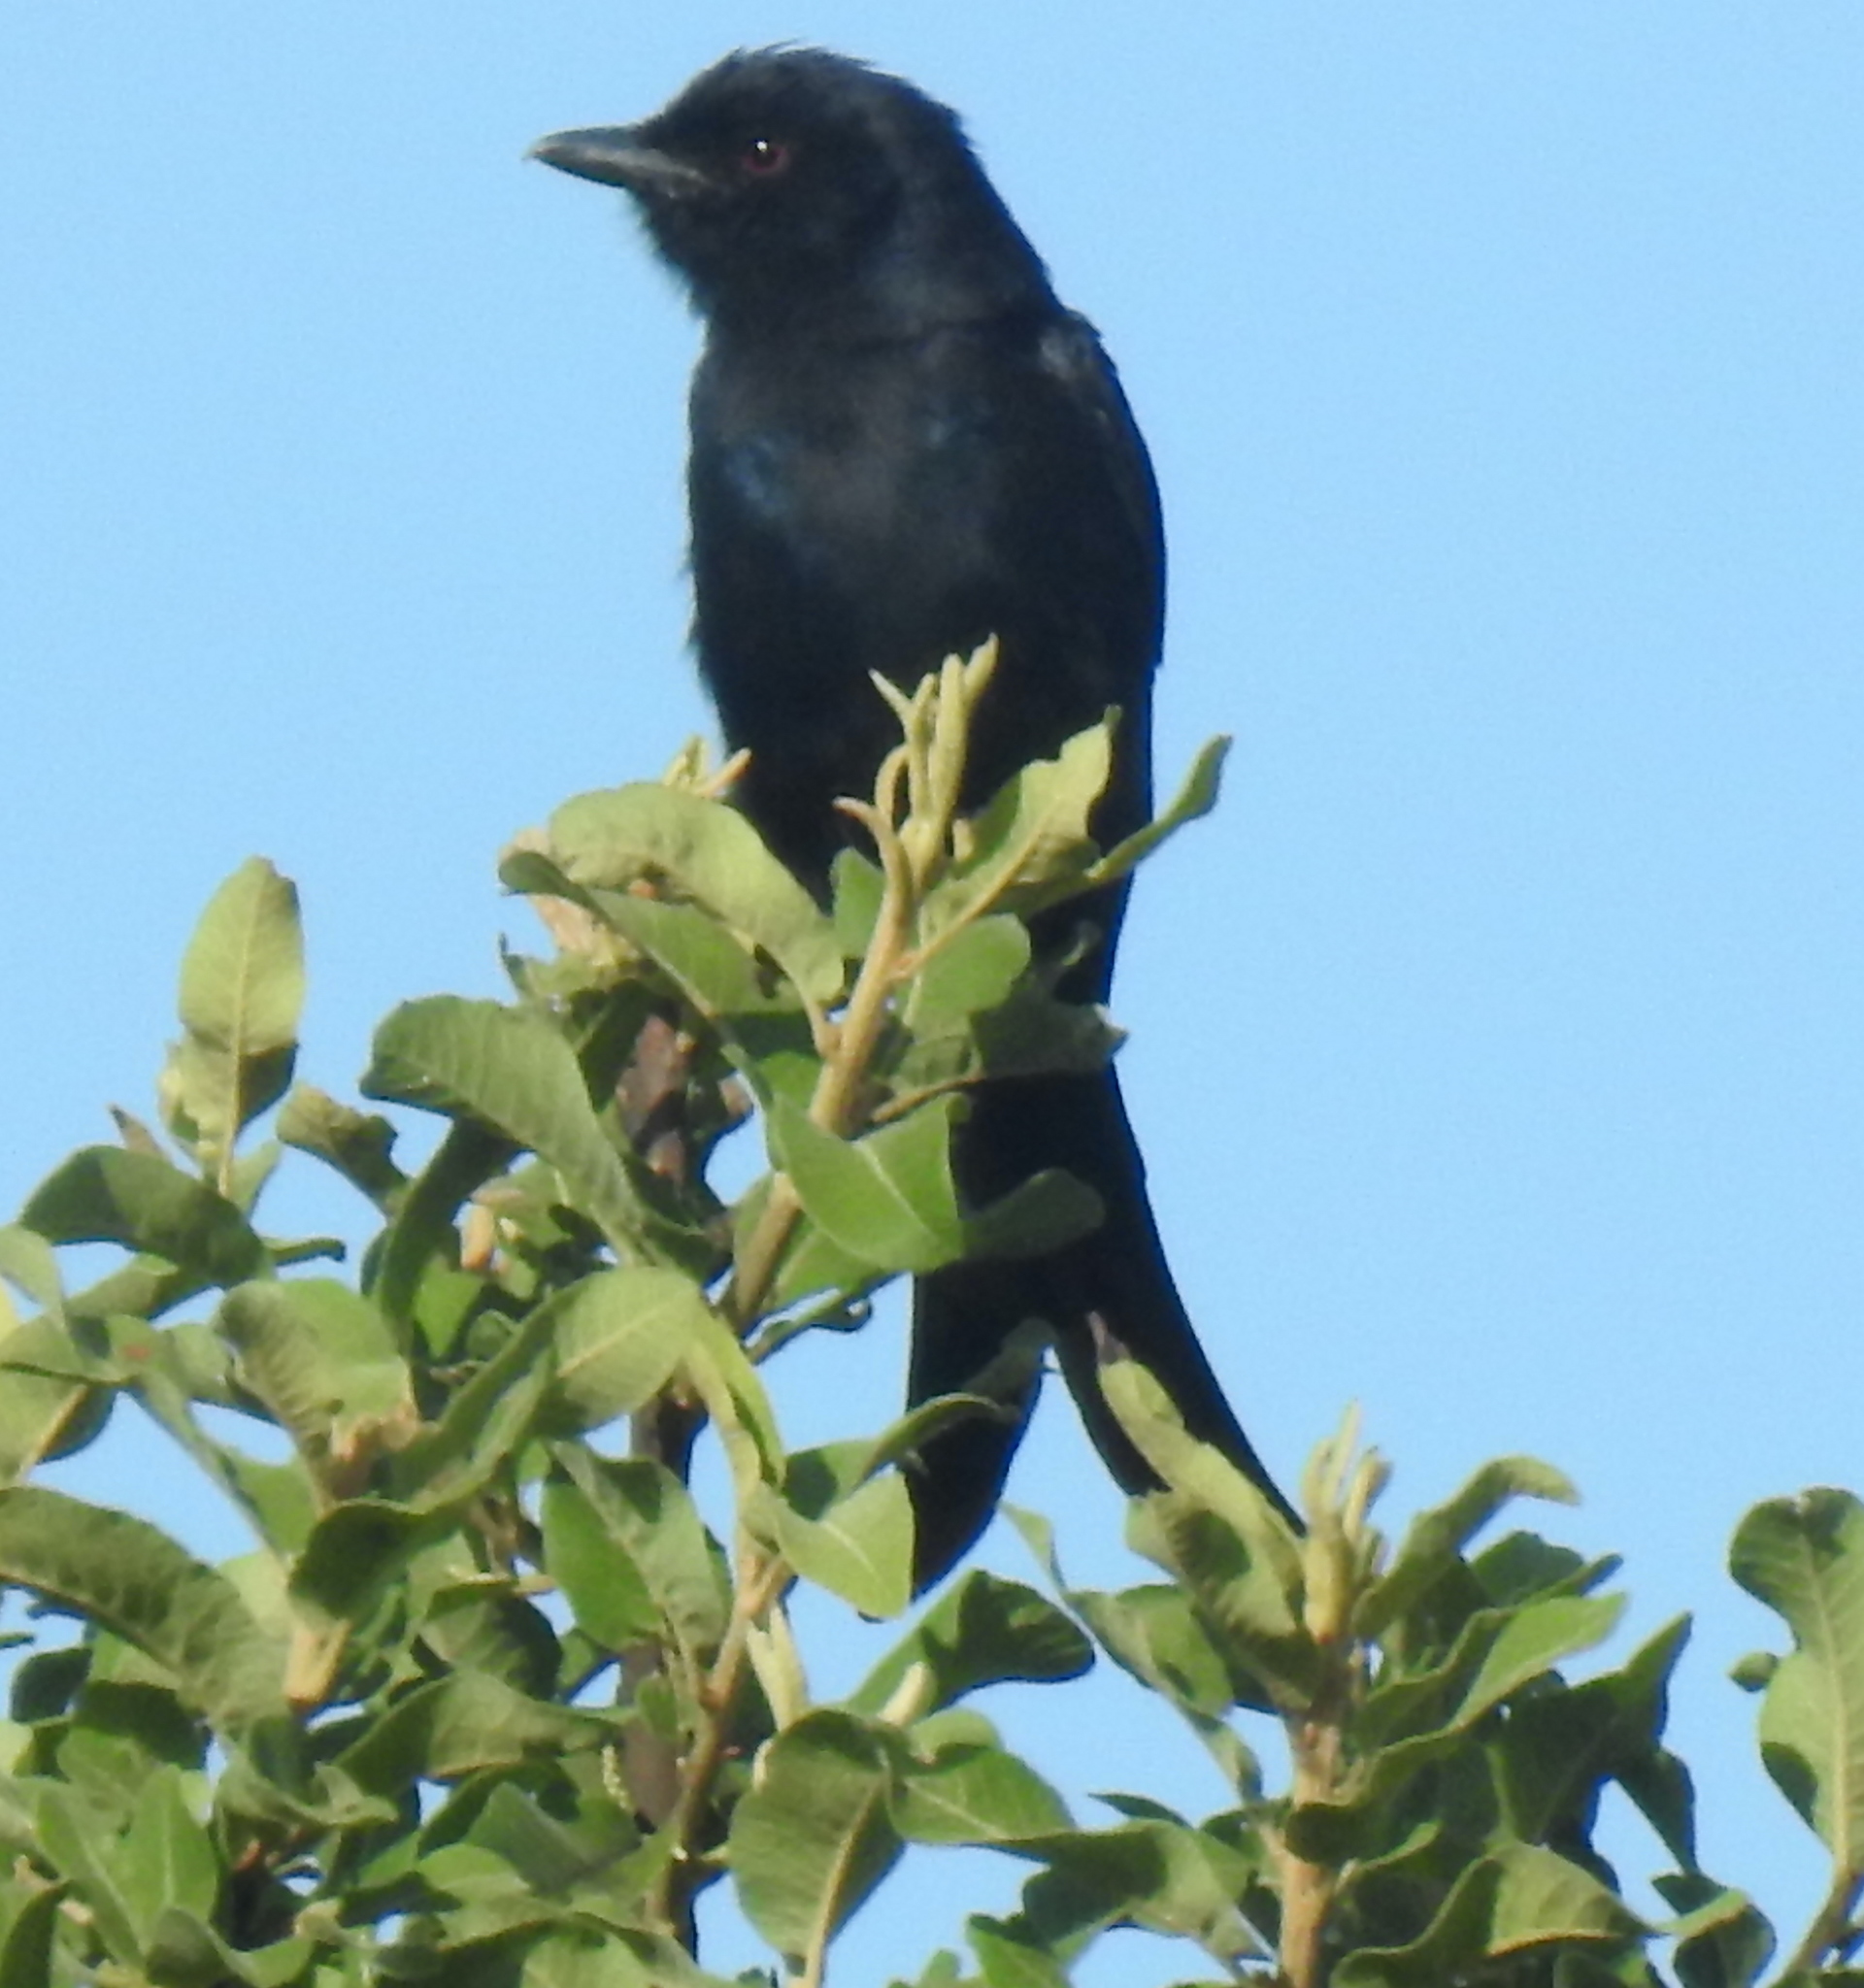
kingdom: Animalia
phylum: Chordata
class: Aves
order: Passeriformes
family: Dicruridae
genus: Dicrurus
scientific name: Dicrurus adsimilis
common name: Fork-tailed drongo
